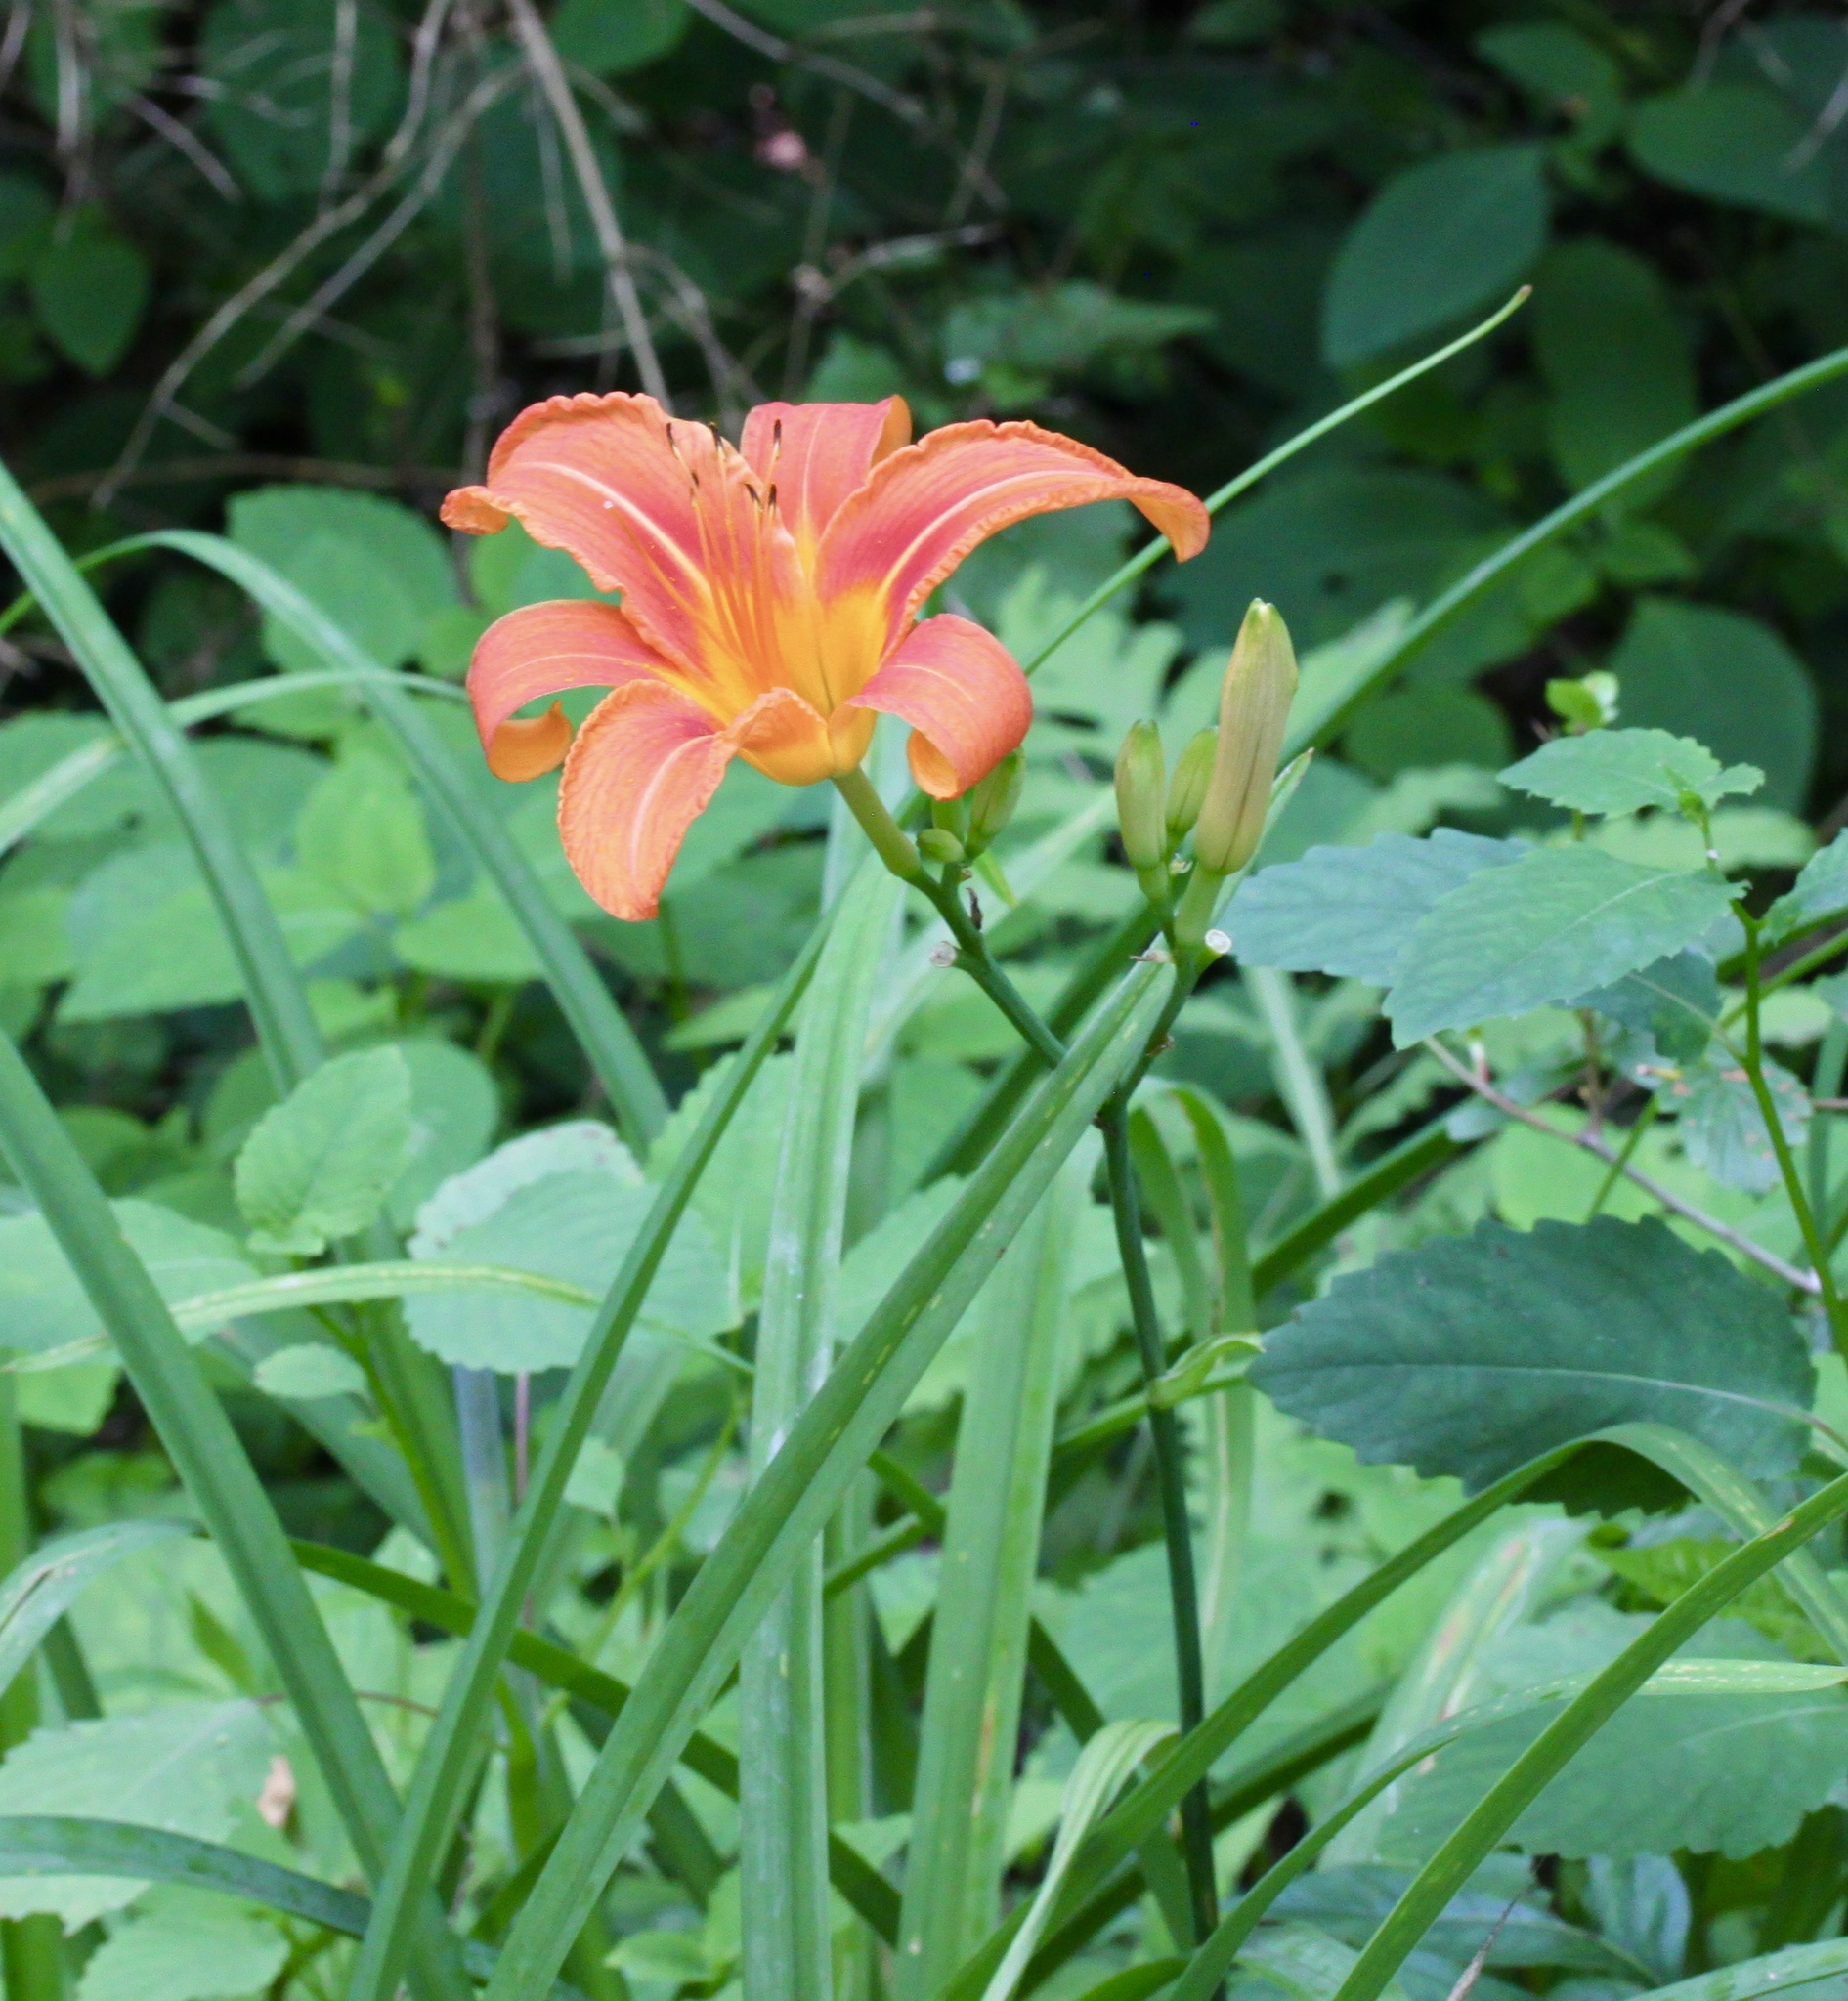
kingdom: Plantae
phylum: Tracheophyta
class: Liliopsida
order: Asparagales
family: Asphodelaceae
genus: Hemerocallis
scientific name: Hemerocallis fulva
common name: Orange day-lily
